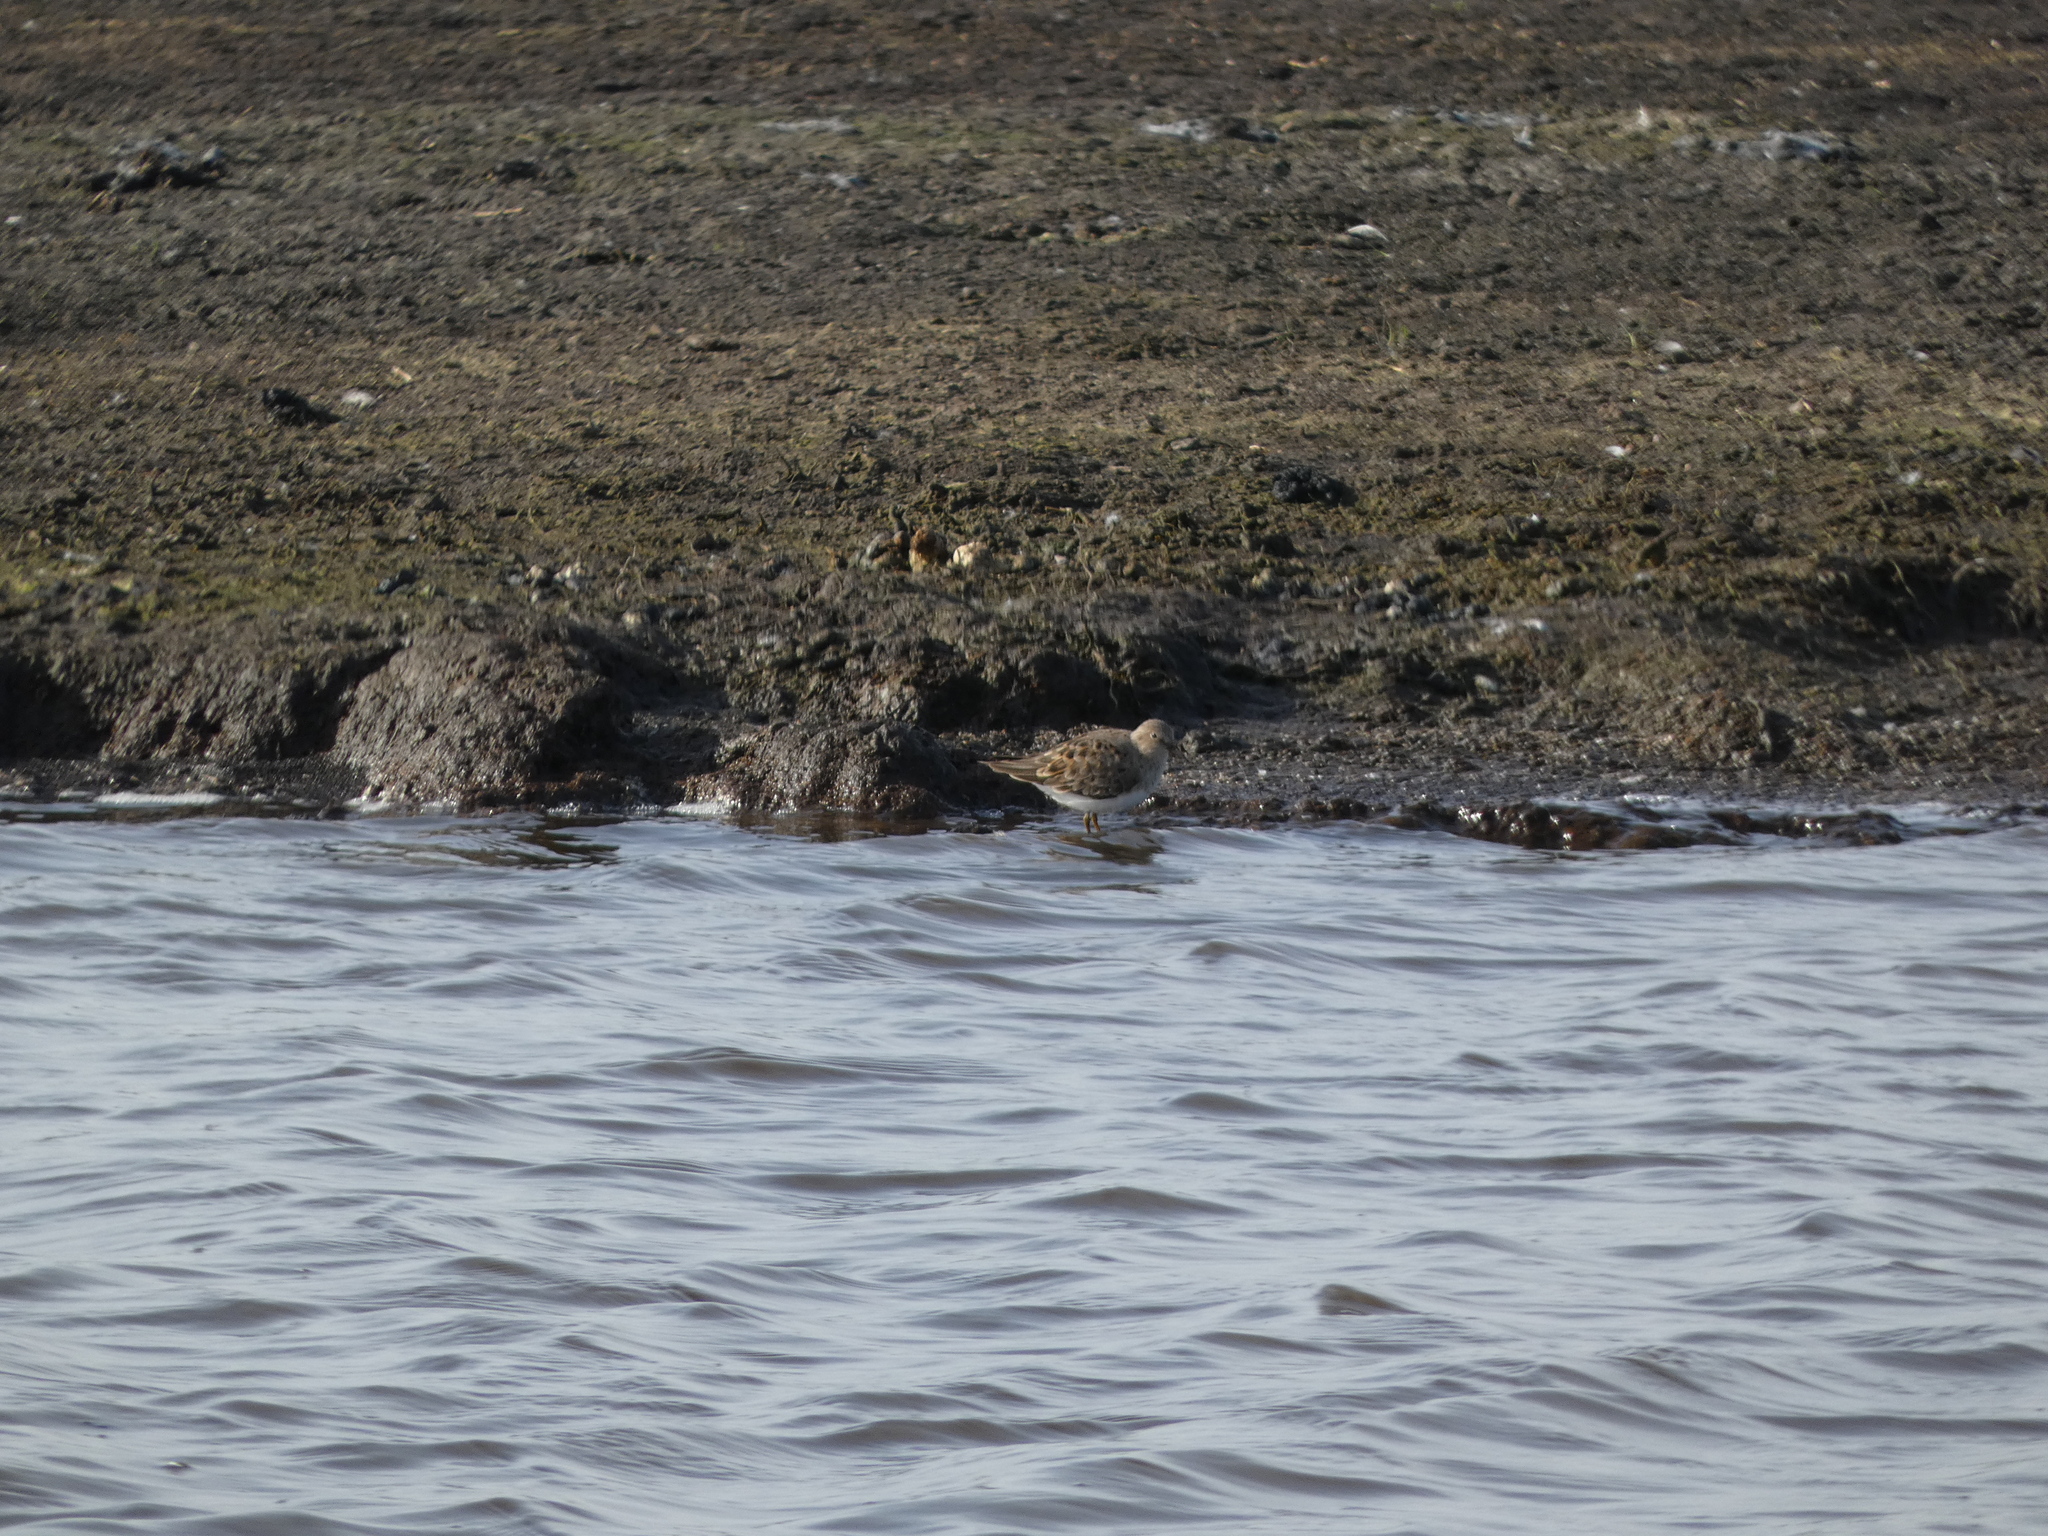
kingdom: Animalia
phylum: Chordata
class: Aves
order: Charadriiformes
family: Scolopacidae
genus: Calidris
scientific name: Calidris temminckii
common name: Temminck's stint
